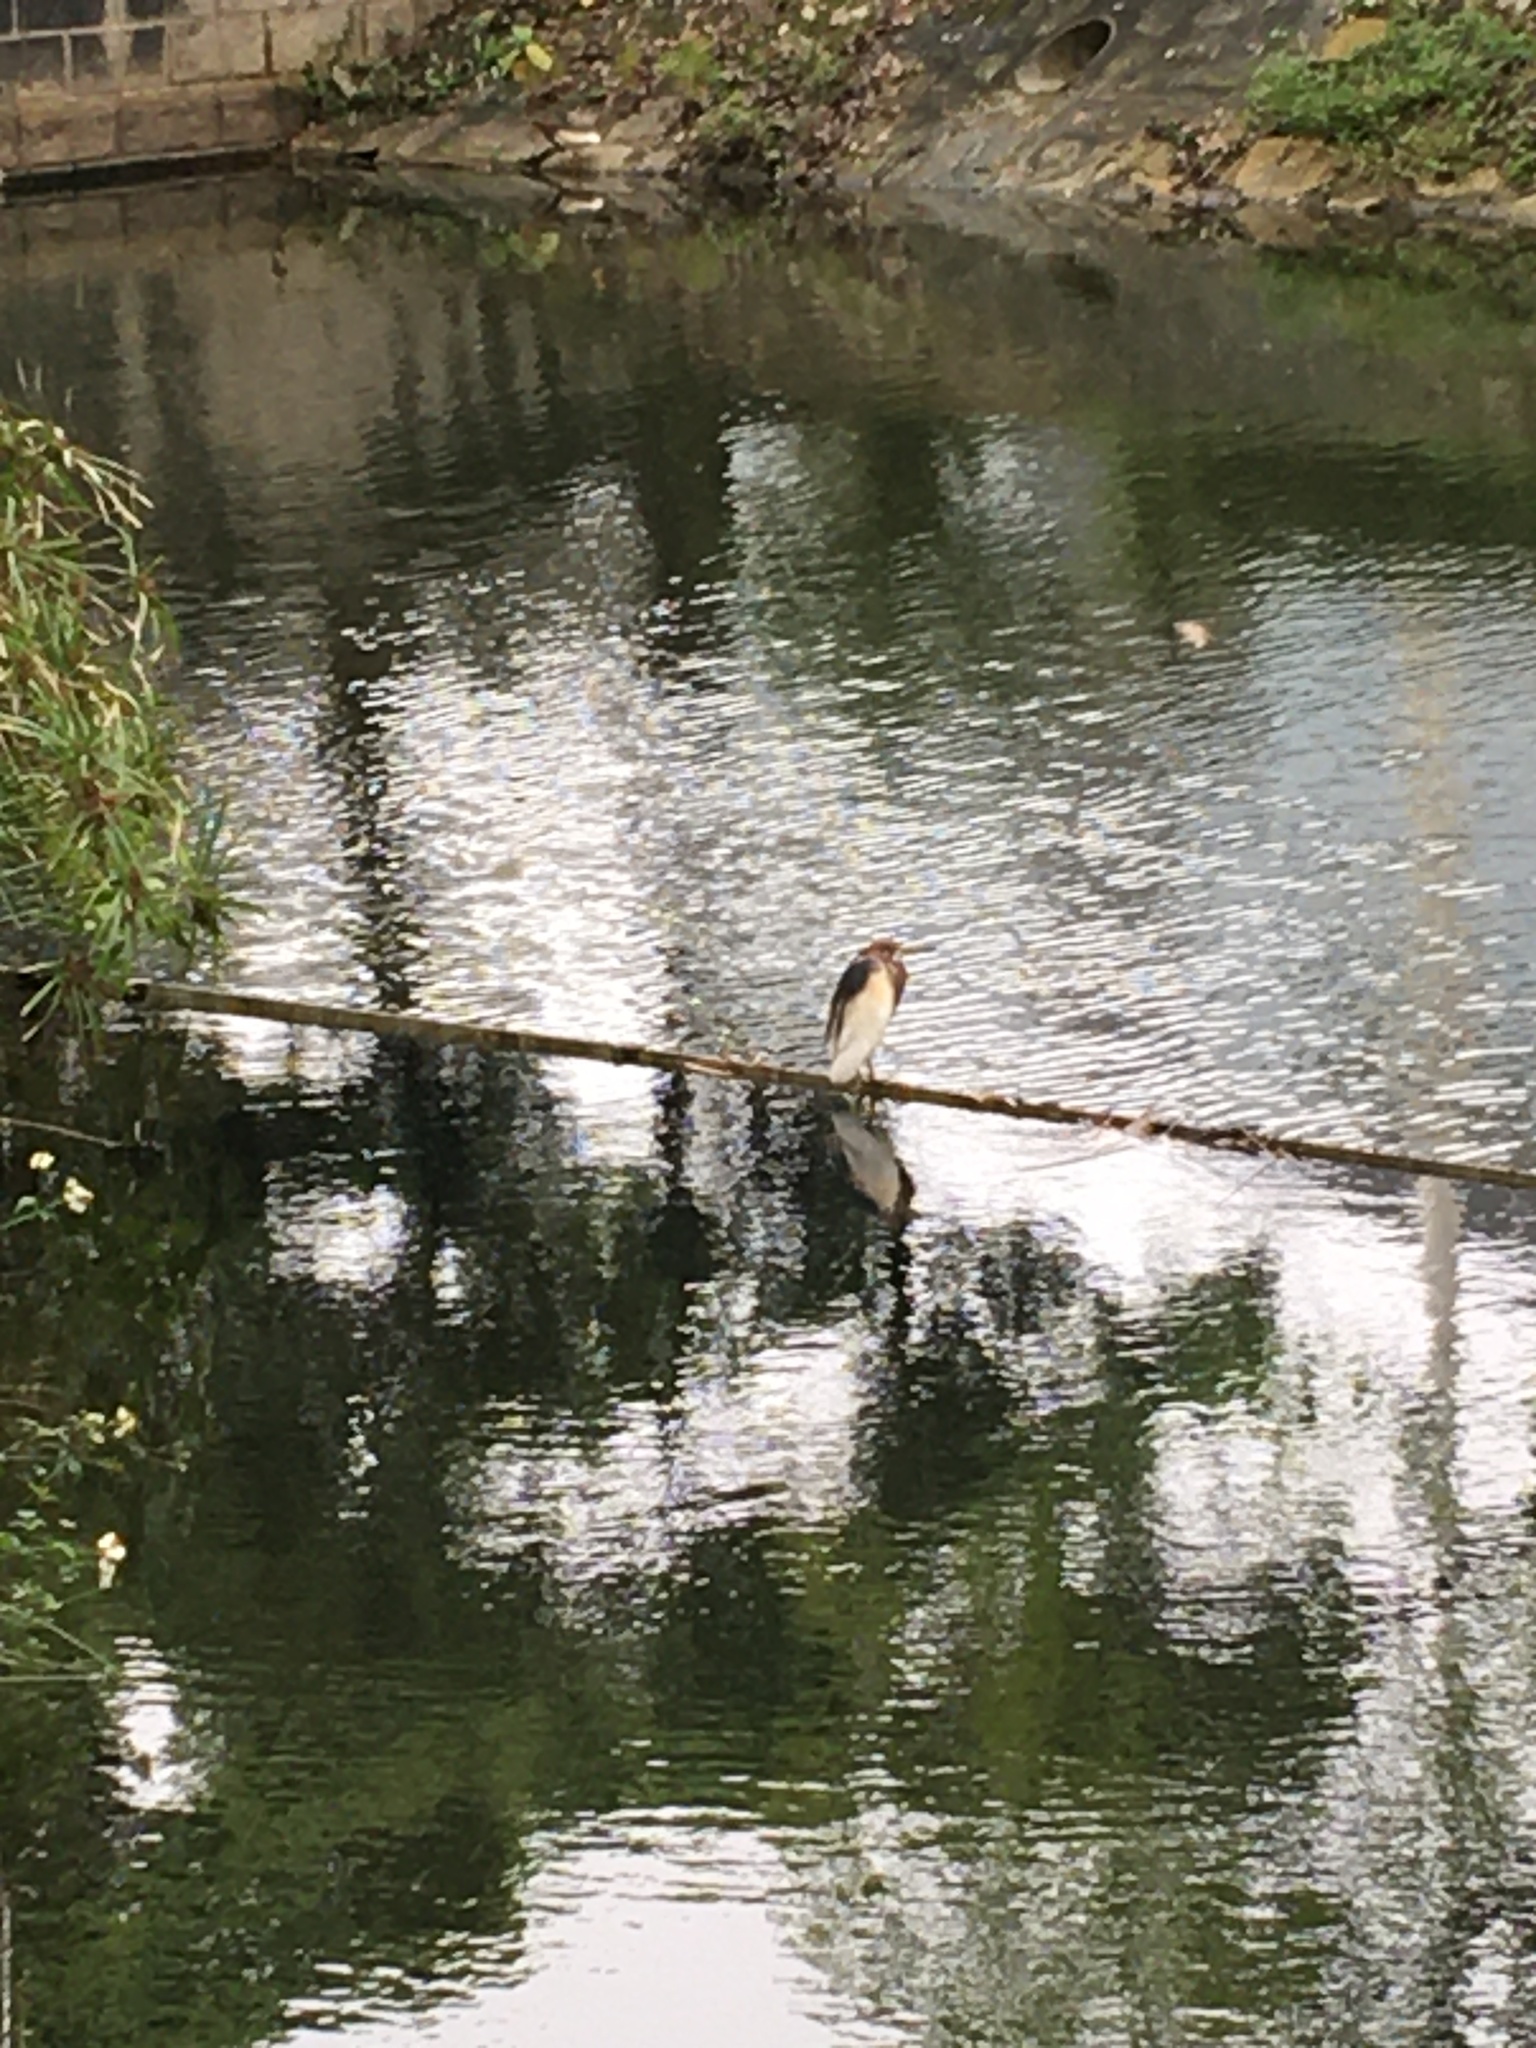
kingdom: Animalia
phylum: Chordata
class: Aves
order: Pelecaniformes
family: Ardeidae
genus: Ardeola
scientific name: Ardeola bacchus
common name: Chinese pond heron
